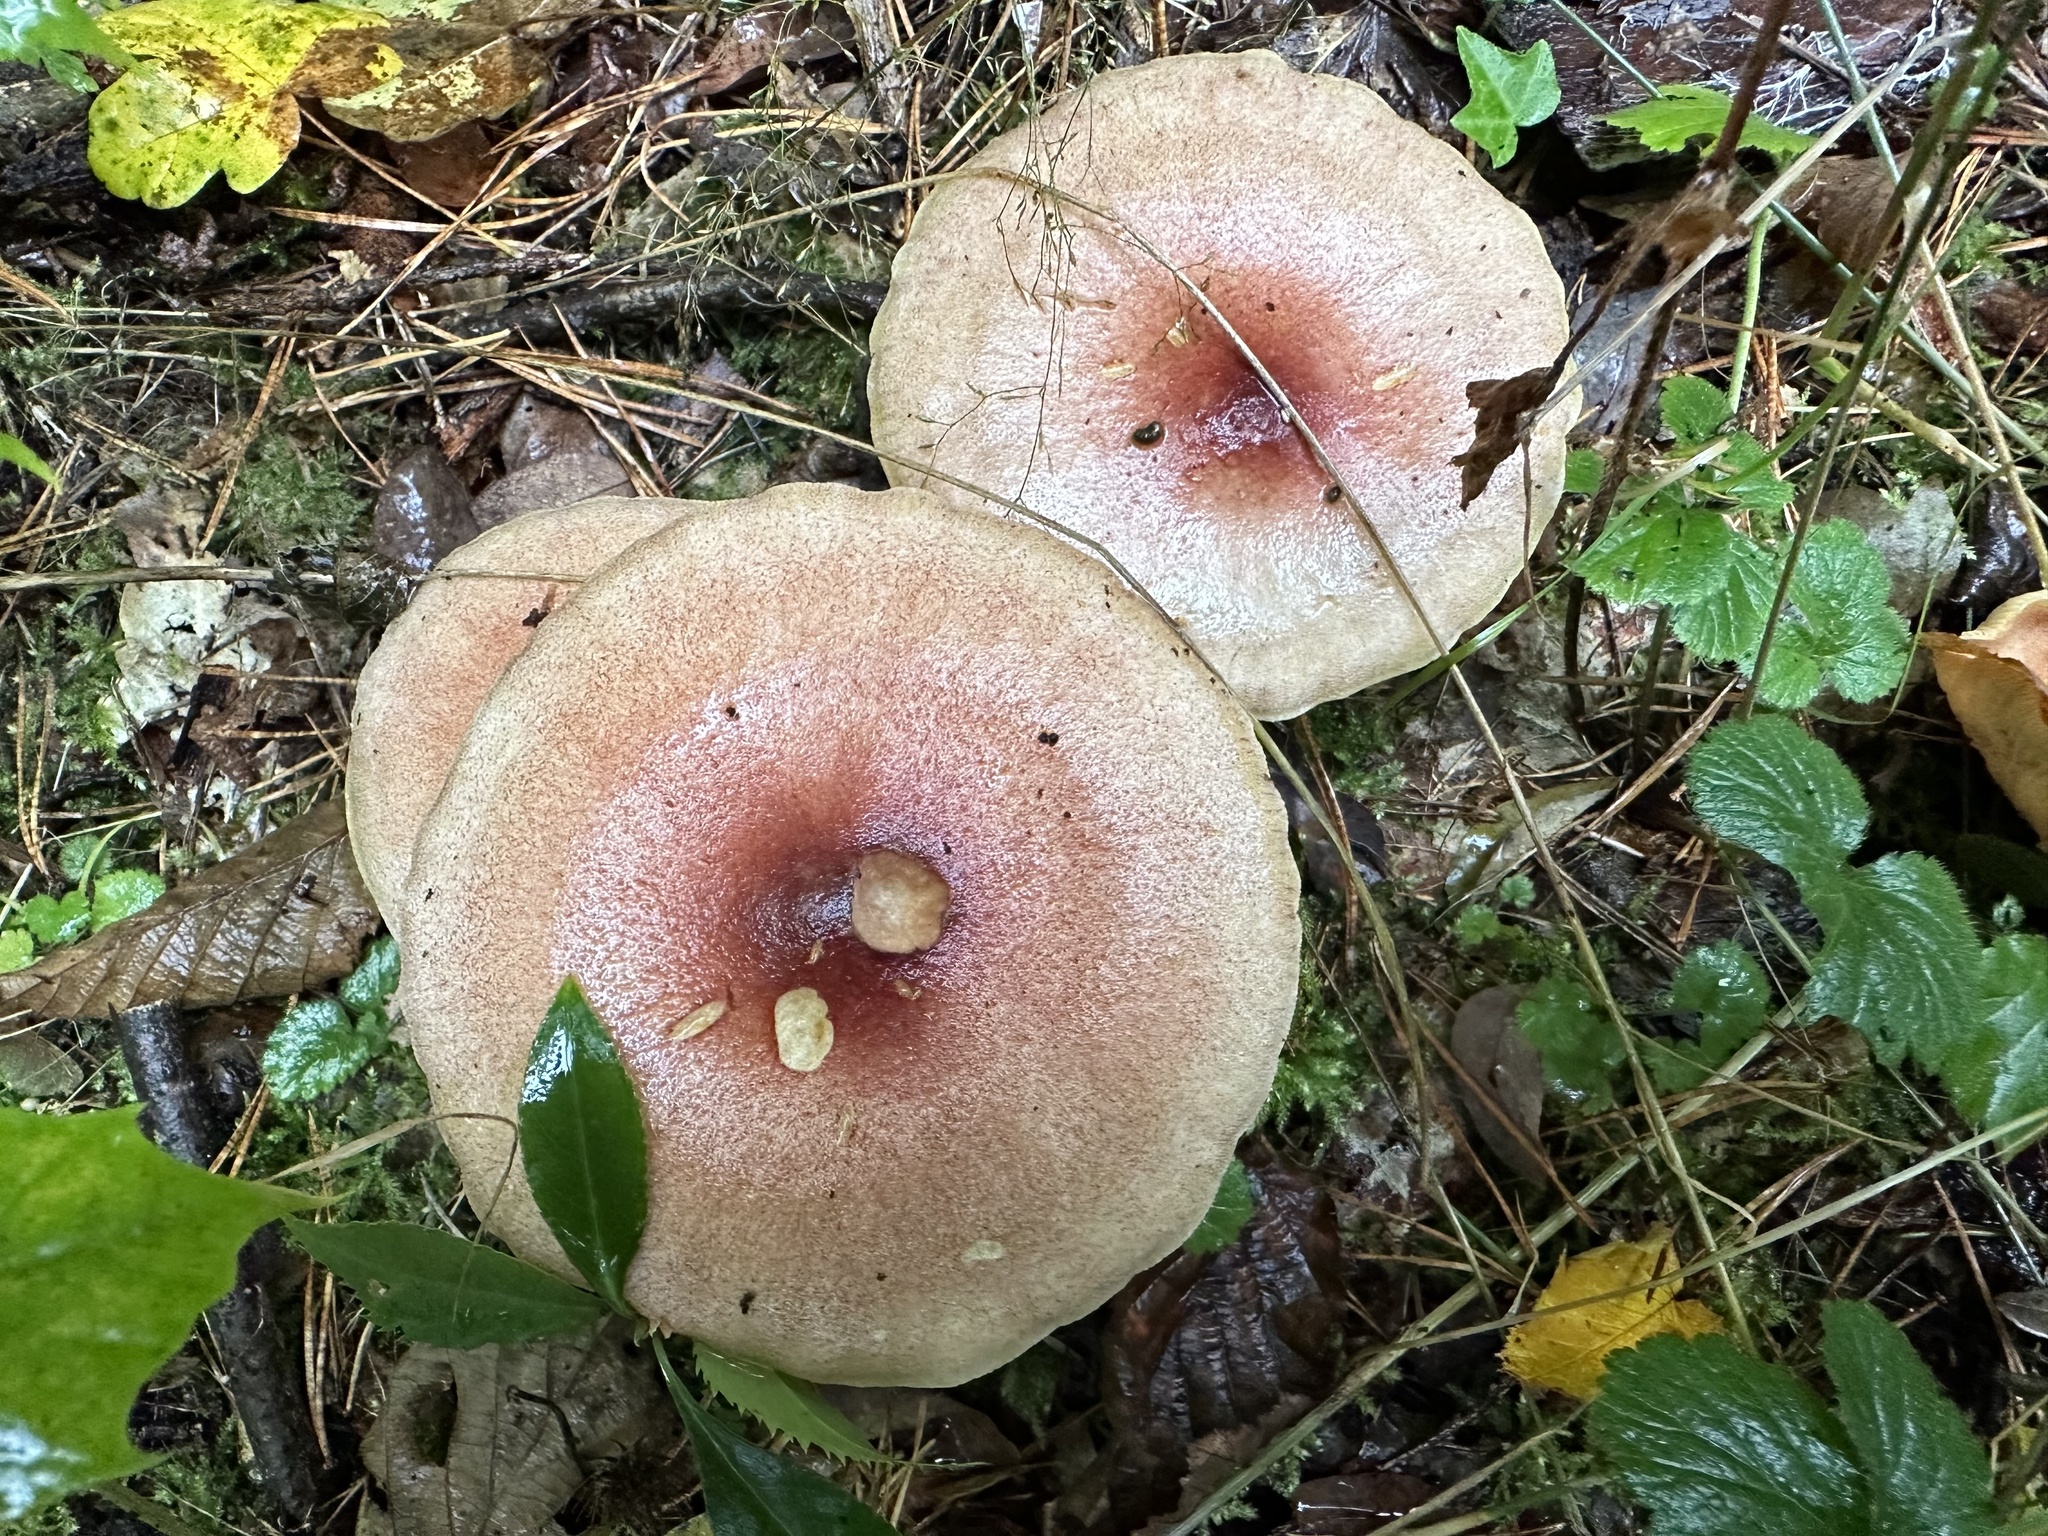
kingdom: Fungi
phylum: Basidiomycota
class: Agaricomycetes
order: Agaricales
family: Tricholomataceae
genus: Tricholomopsis
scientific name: Tricholomopsis rutilans
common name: Plums and custard
